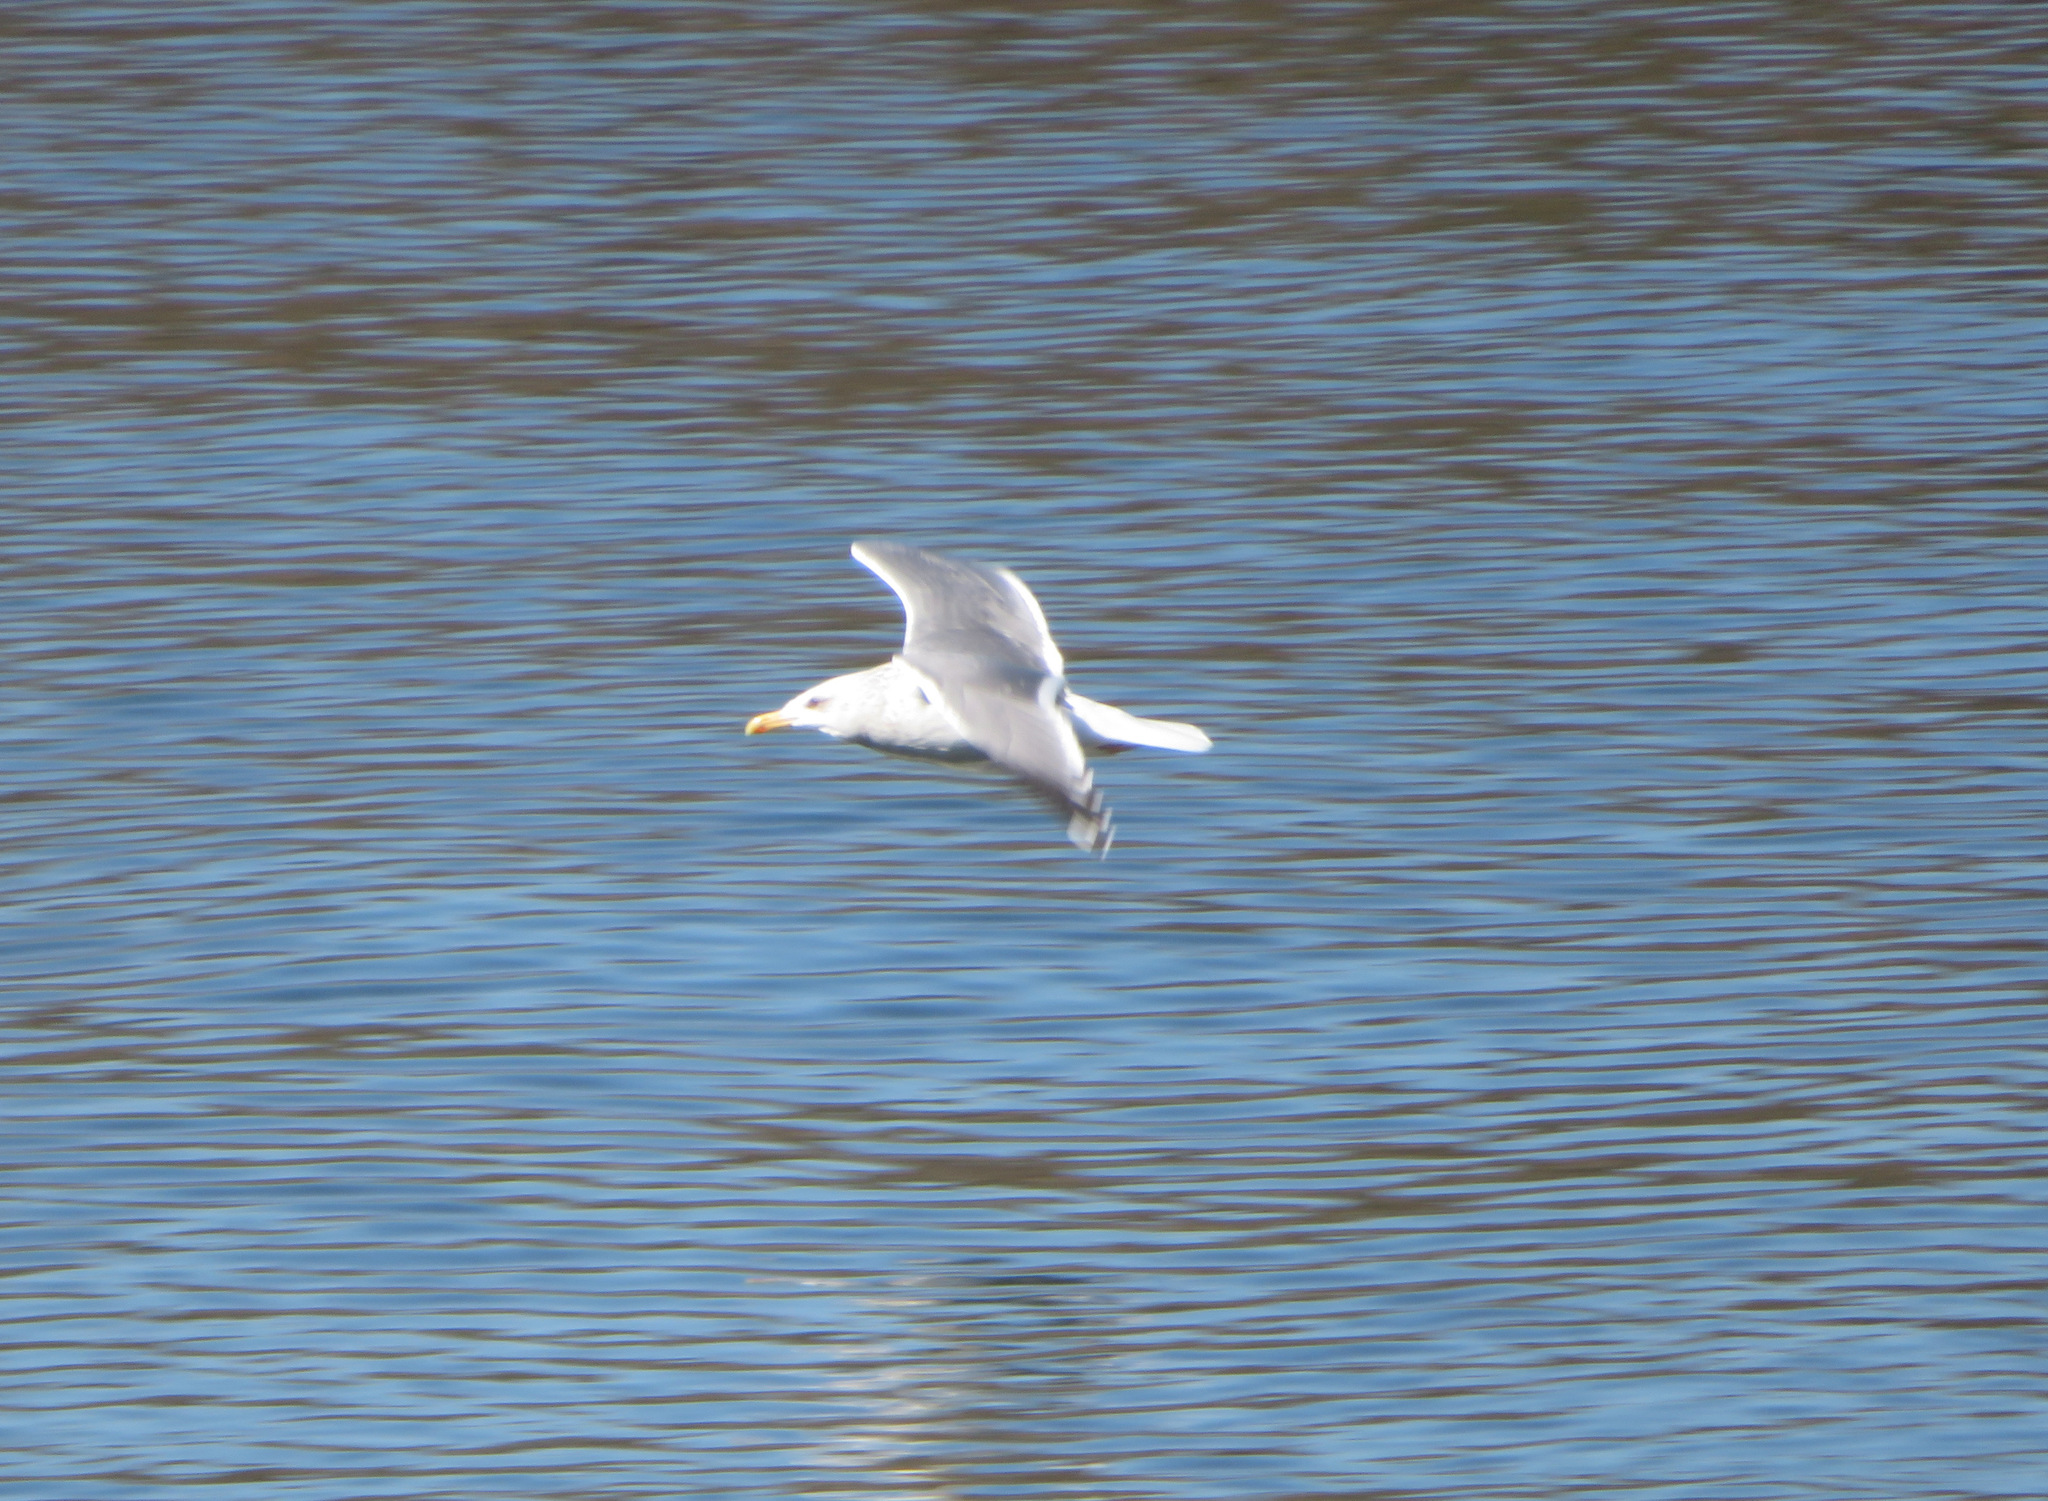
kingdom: Animalia
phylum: Chordata
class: Aves
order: Charadriiformes
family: Laridae
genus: Larus
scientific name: Larus vegae
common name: Vega gull
